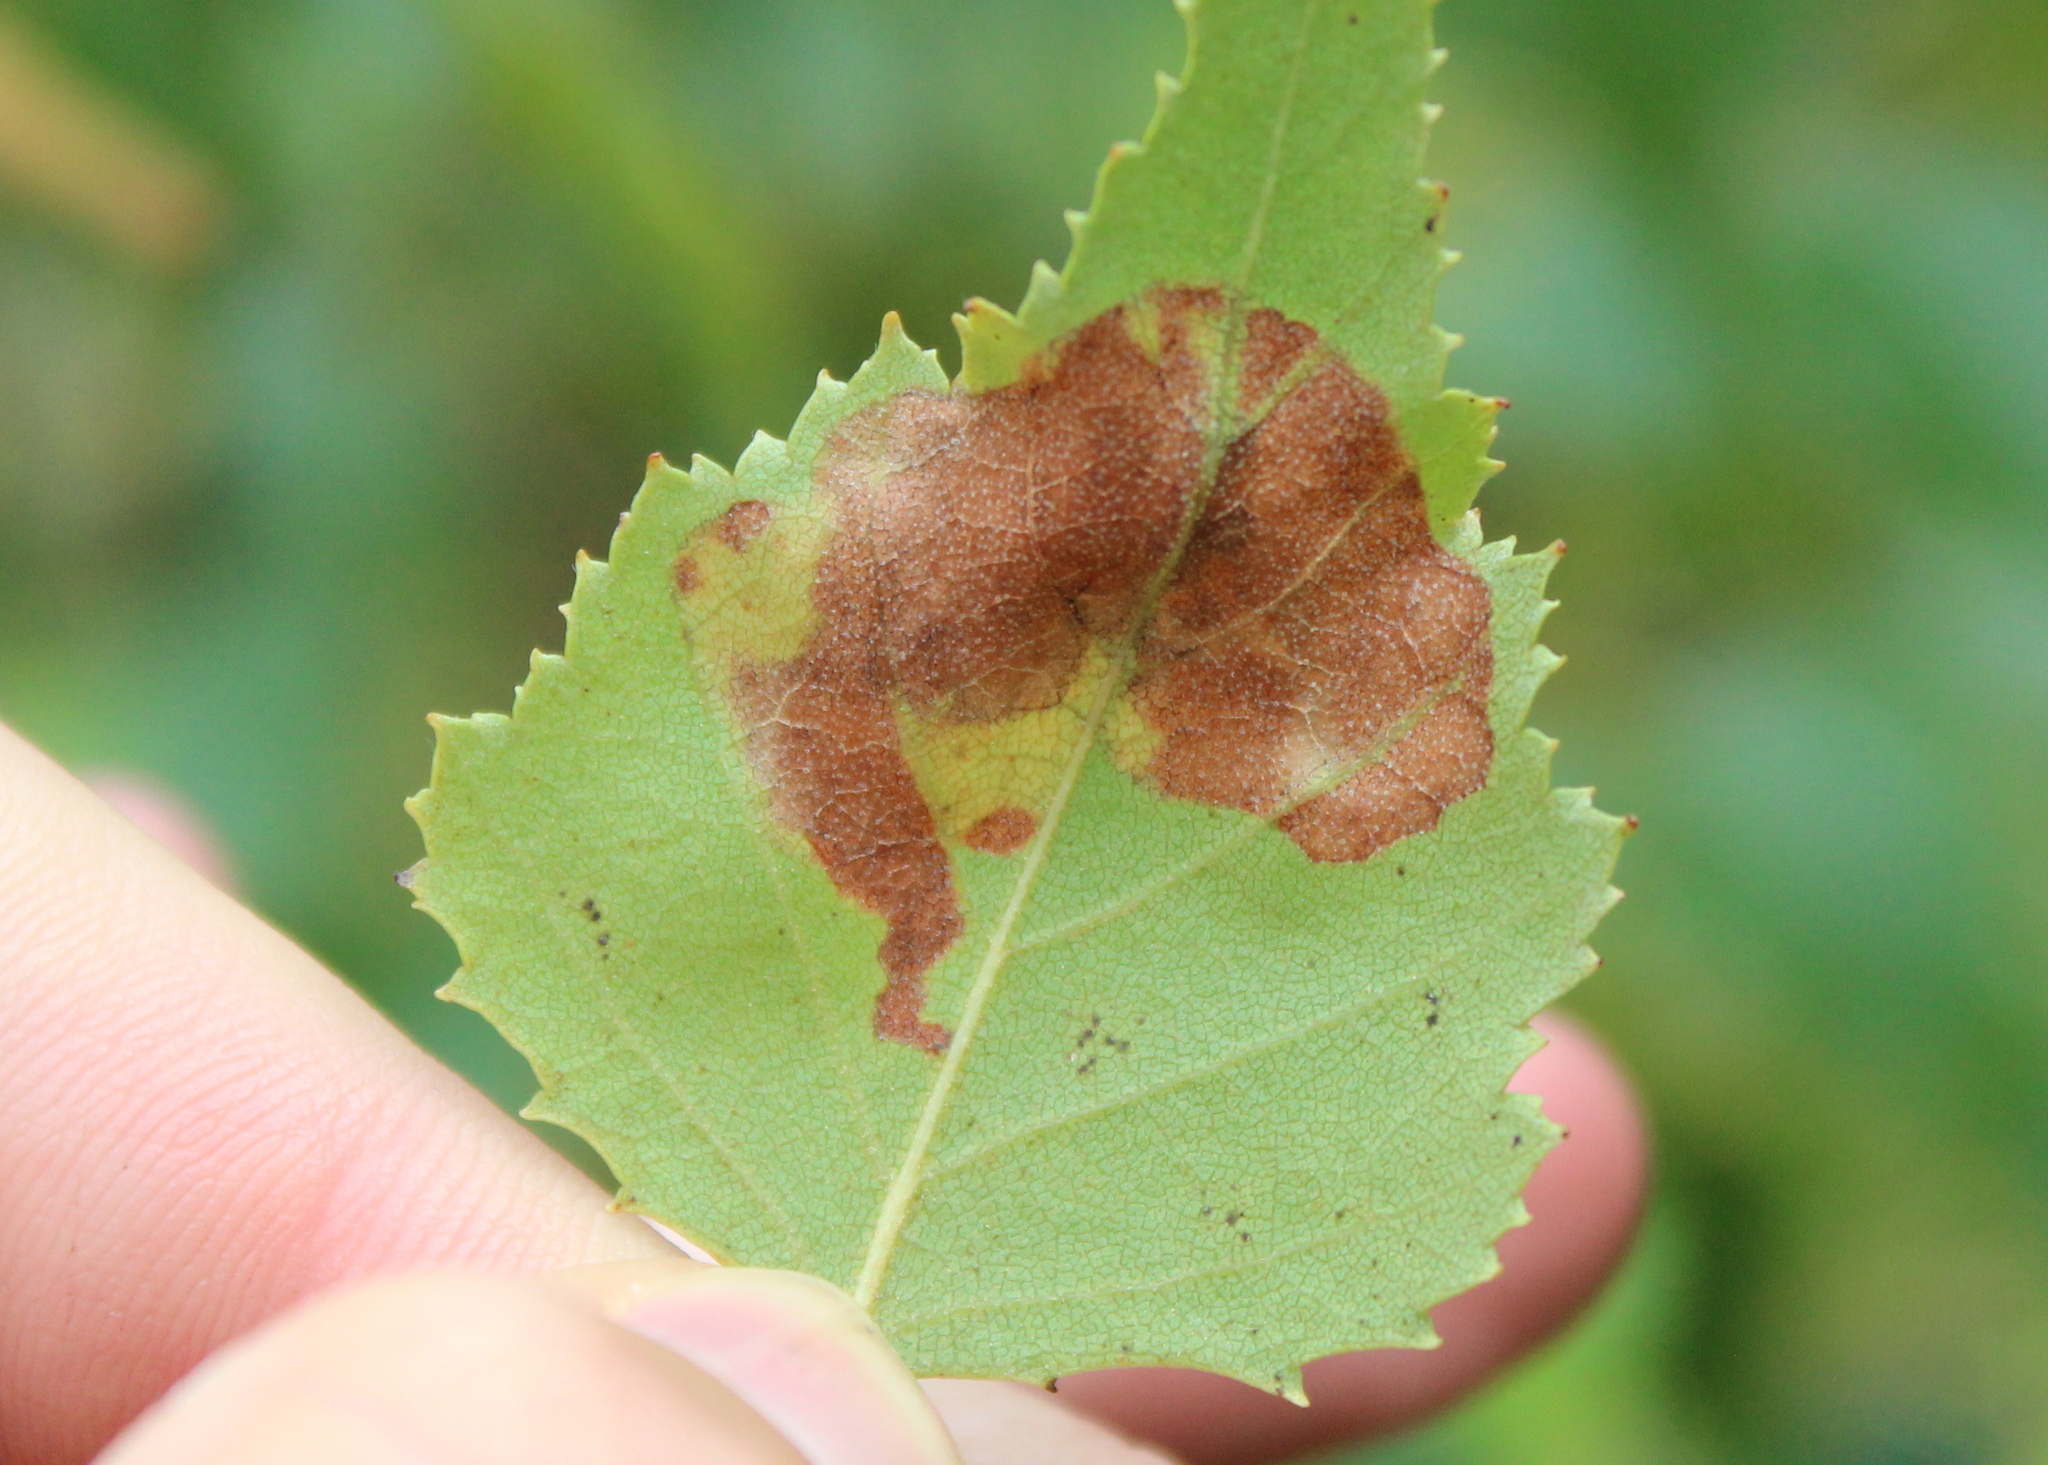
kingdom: Animalia
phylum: Arthropoda
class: Insecta
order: Hymenoptera
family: Tenthredinidae
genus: Profenusa
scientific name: Profenusa thomsoni
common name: Amber-marked birch leafminer
